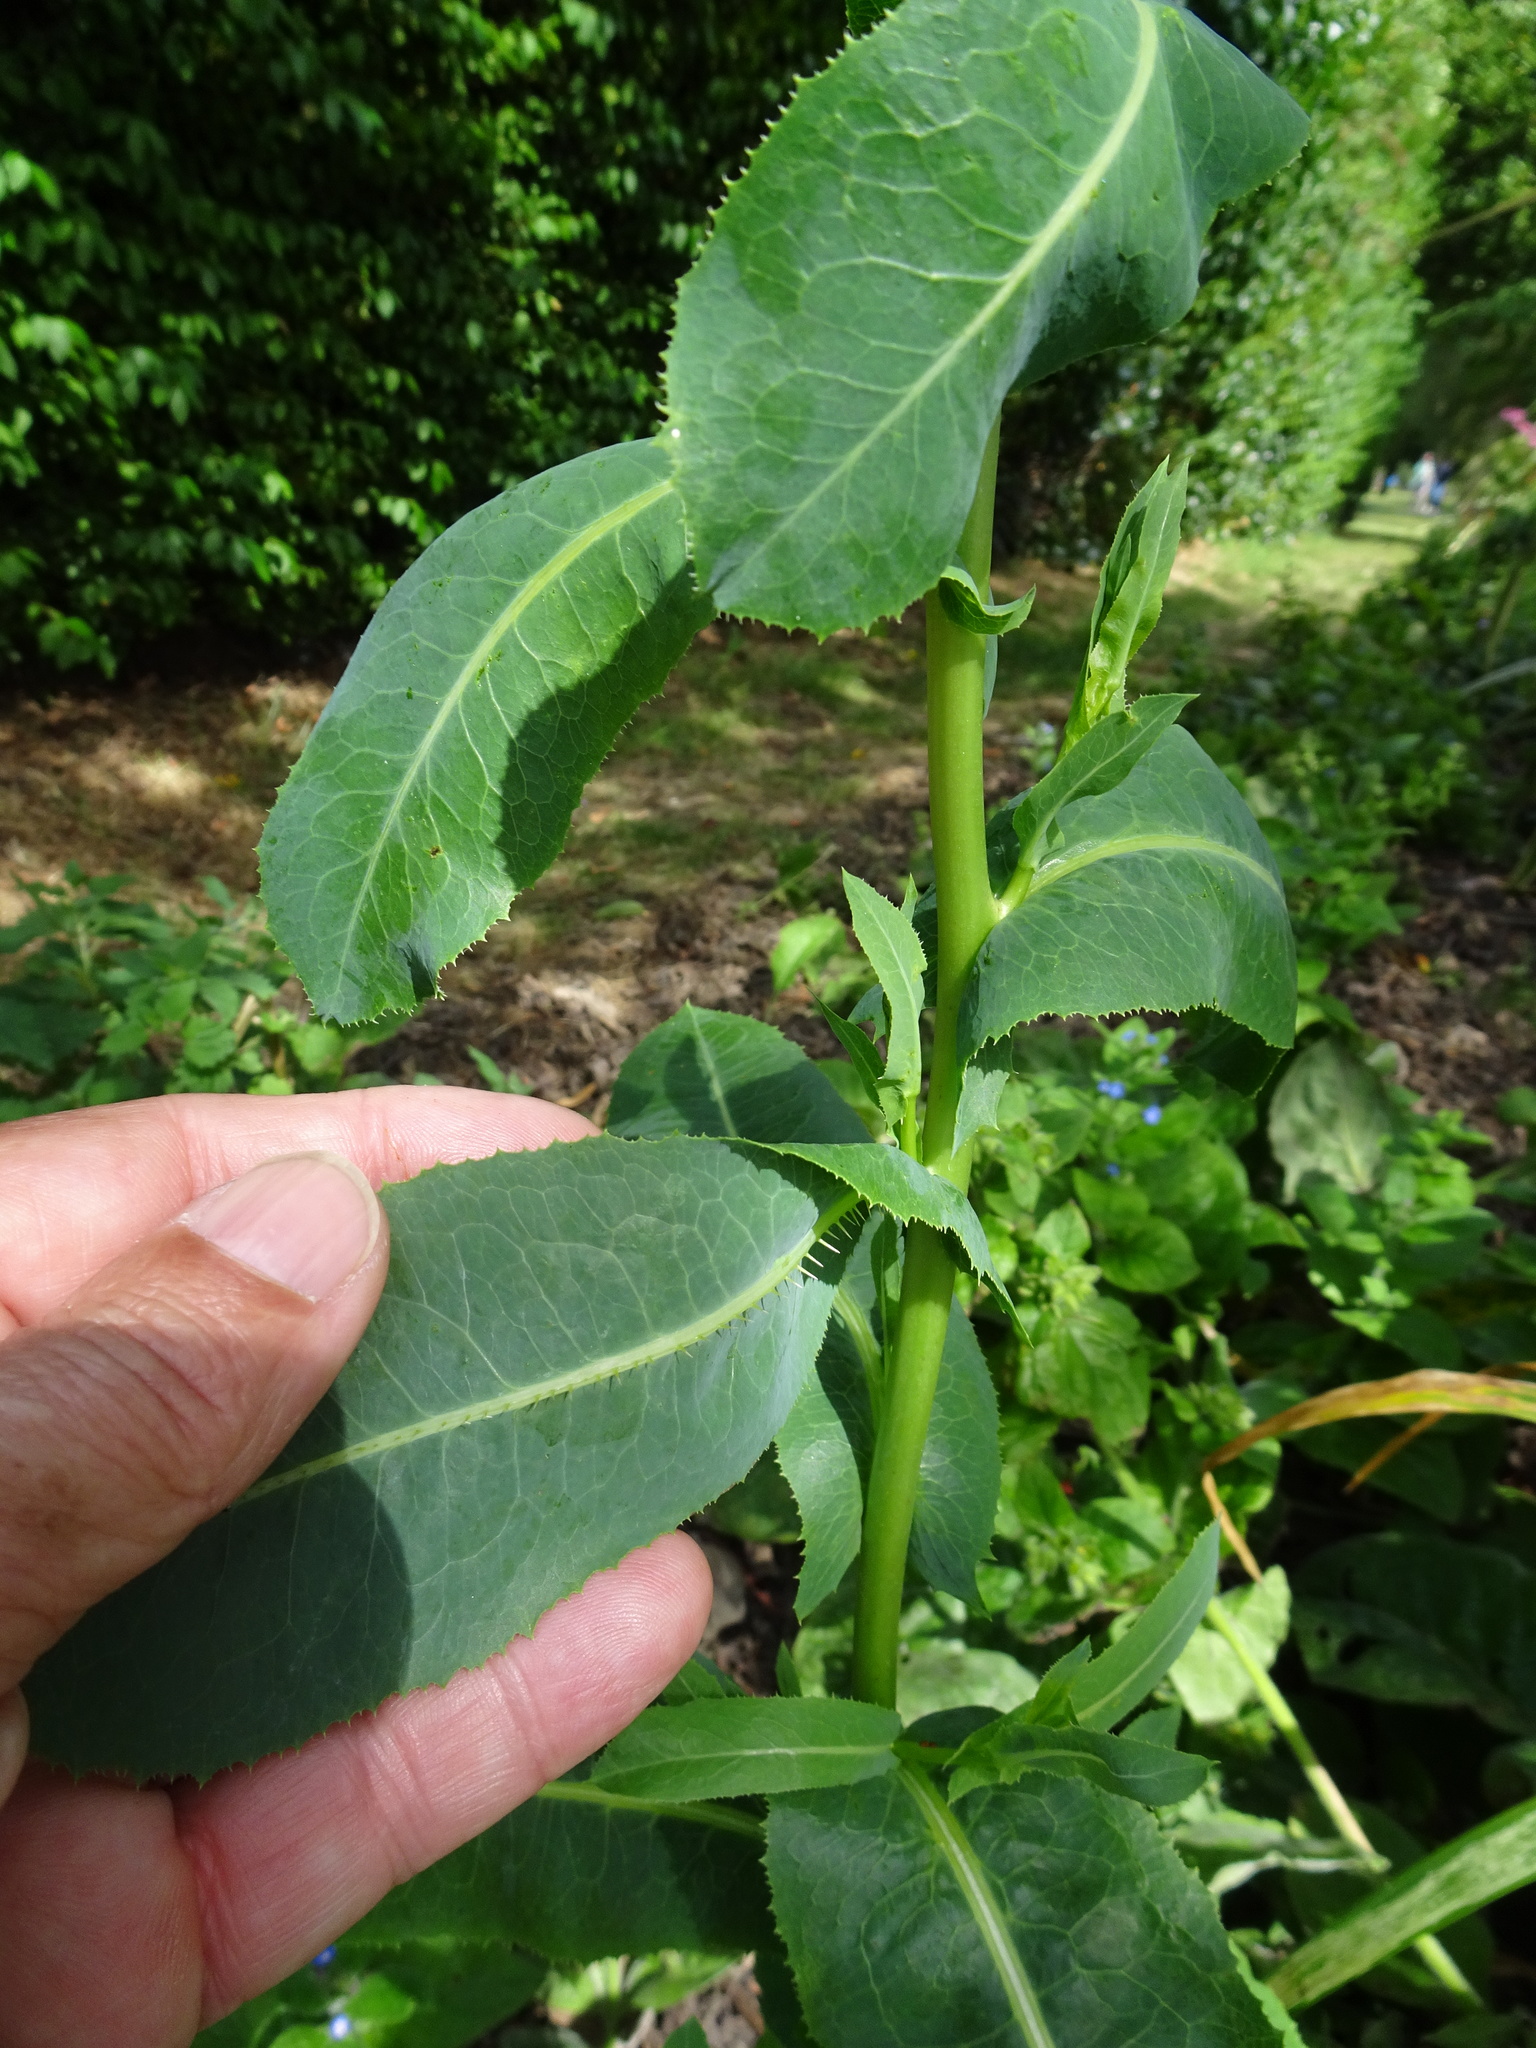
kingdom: Plantae
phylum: Tracheophyta
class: Magnoliopsida
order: Asterales
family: Asteraceae
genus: Lactuca
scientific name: Lactuca serriola
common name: Prickly lettuce
